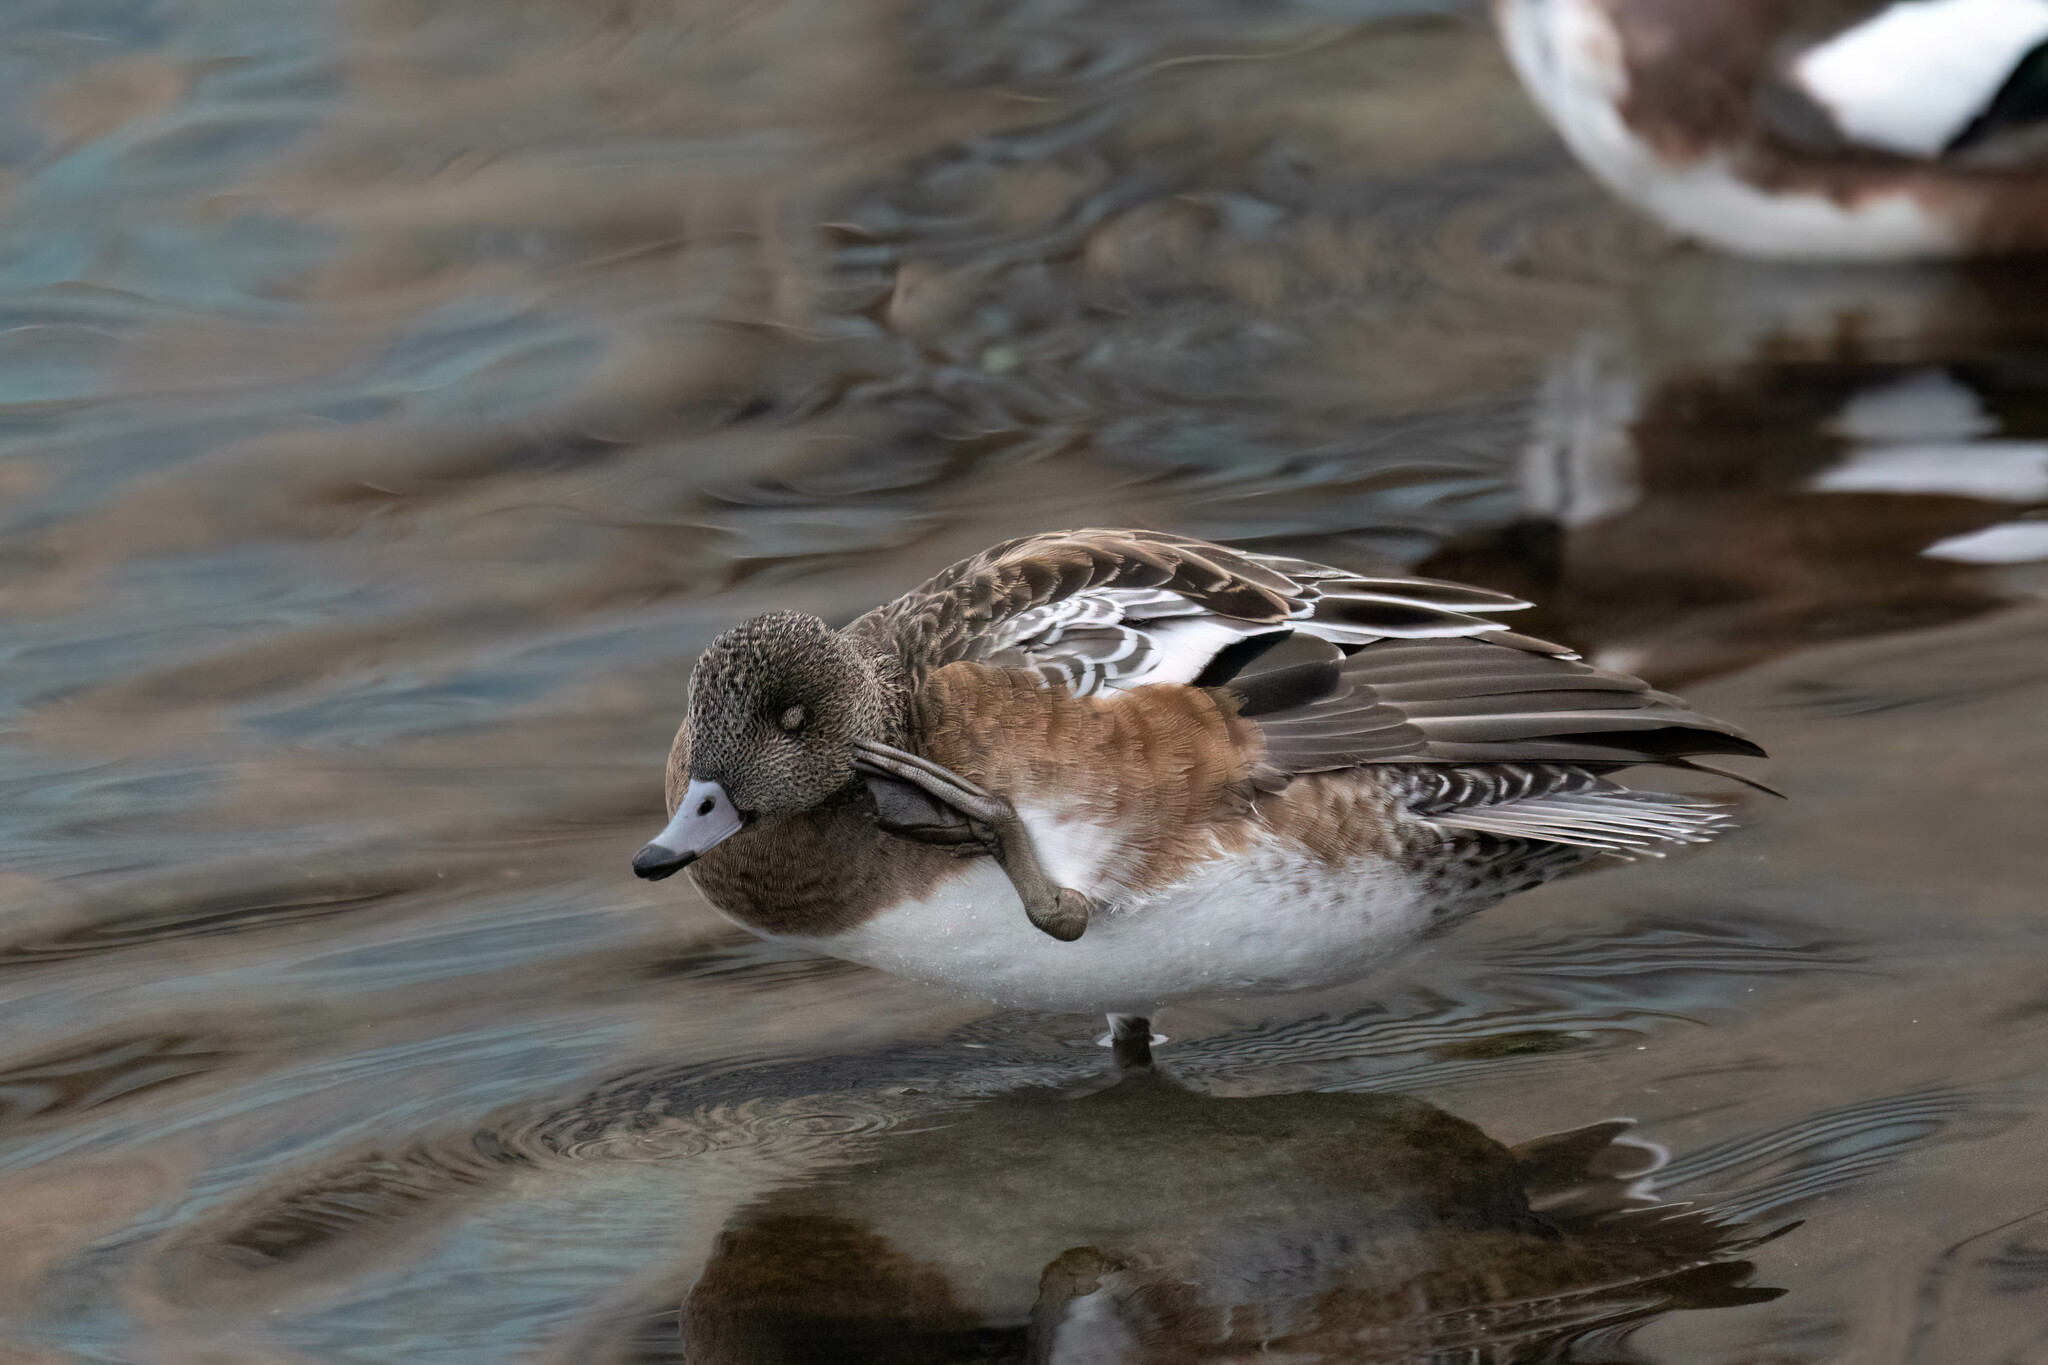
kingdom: Animalia
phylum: Chordata
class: Aves
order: Anseriformes
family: Anatidae
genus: Mareca
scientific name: Mareca americana
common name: American wigeon
